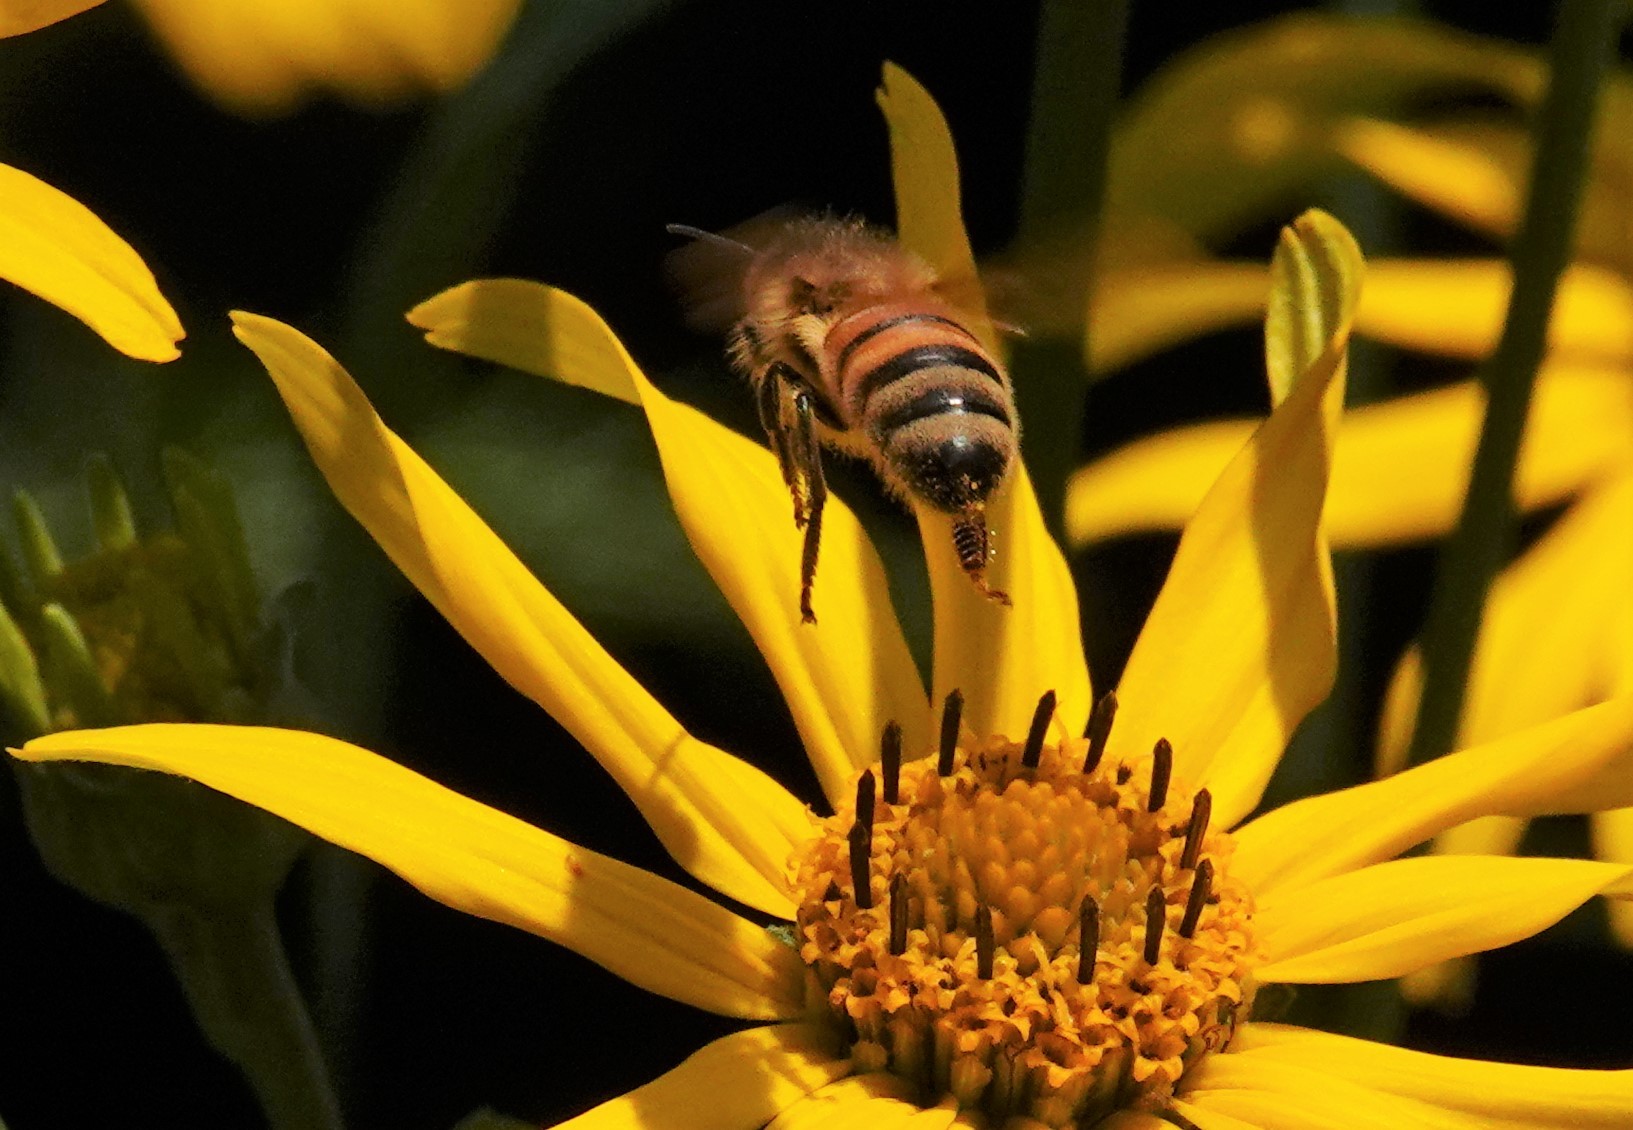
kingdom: Animalia
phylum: Arthropoda
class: Insecta
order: Hymenoptera
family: Apidae
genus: Apis
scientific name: Apis mellifera
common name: Honey bee
